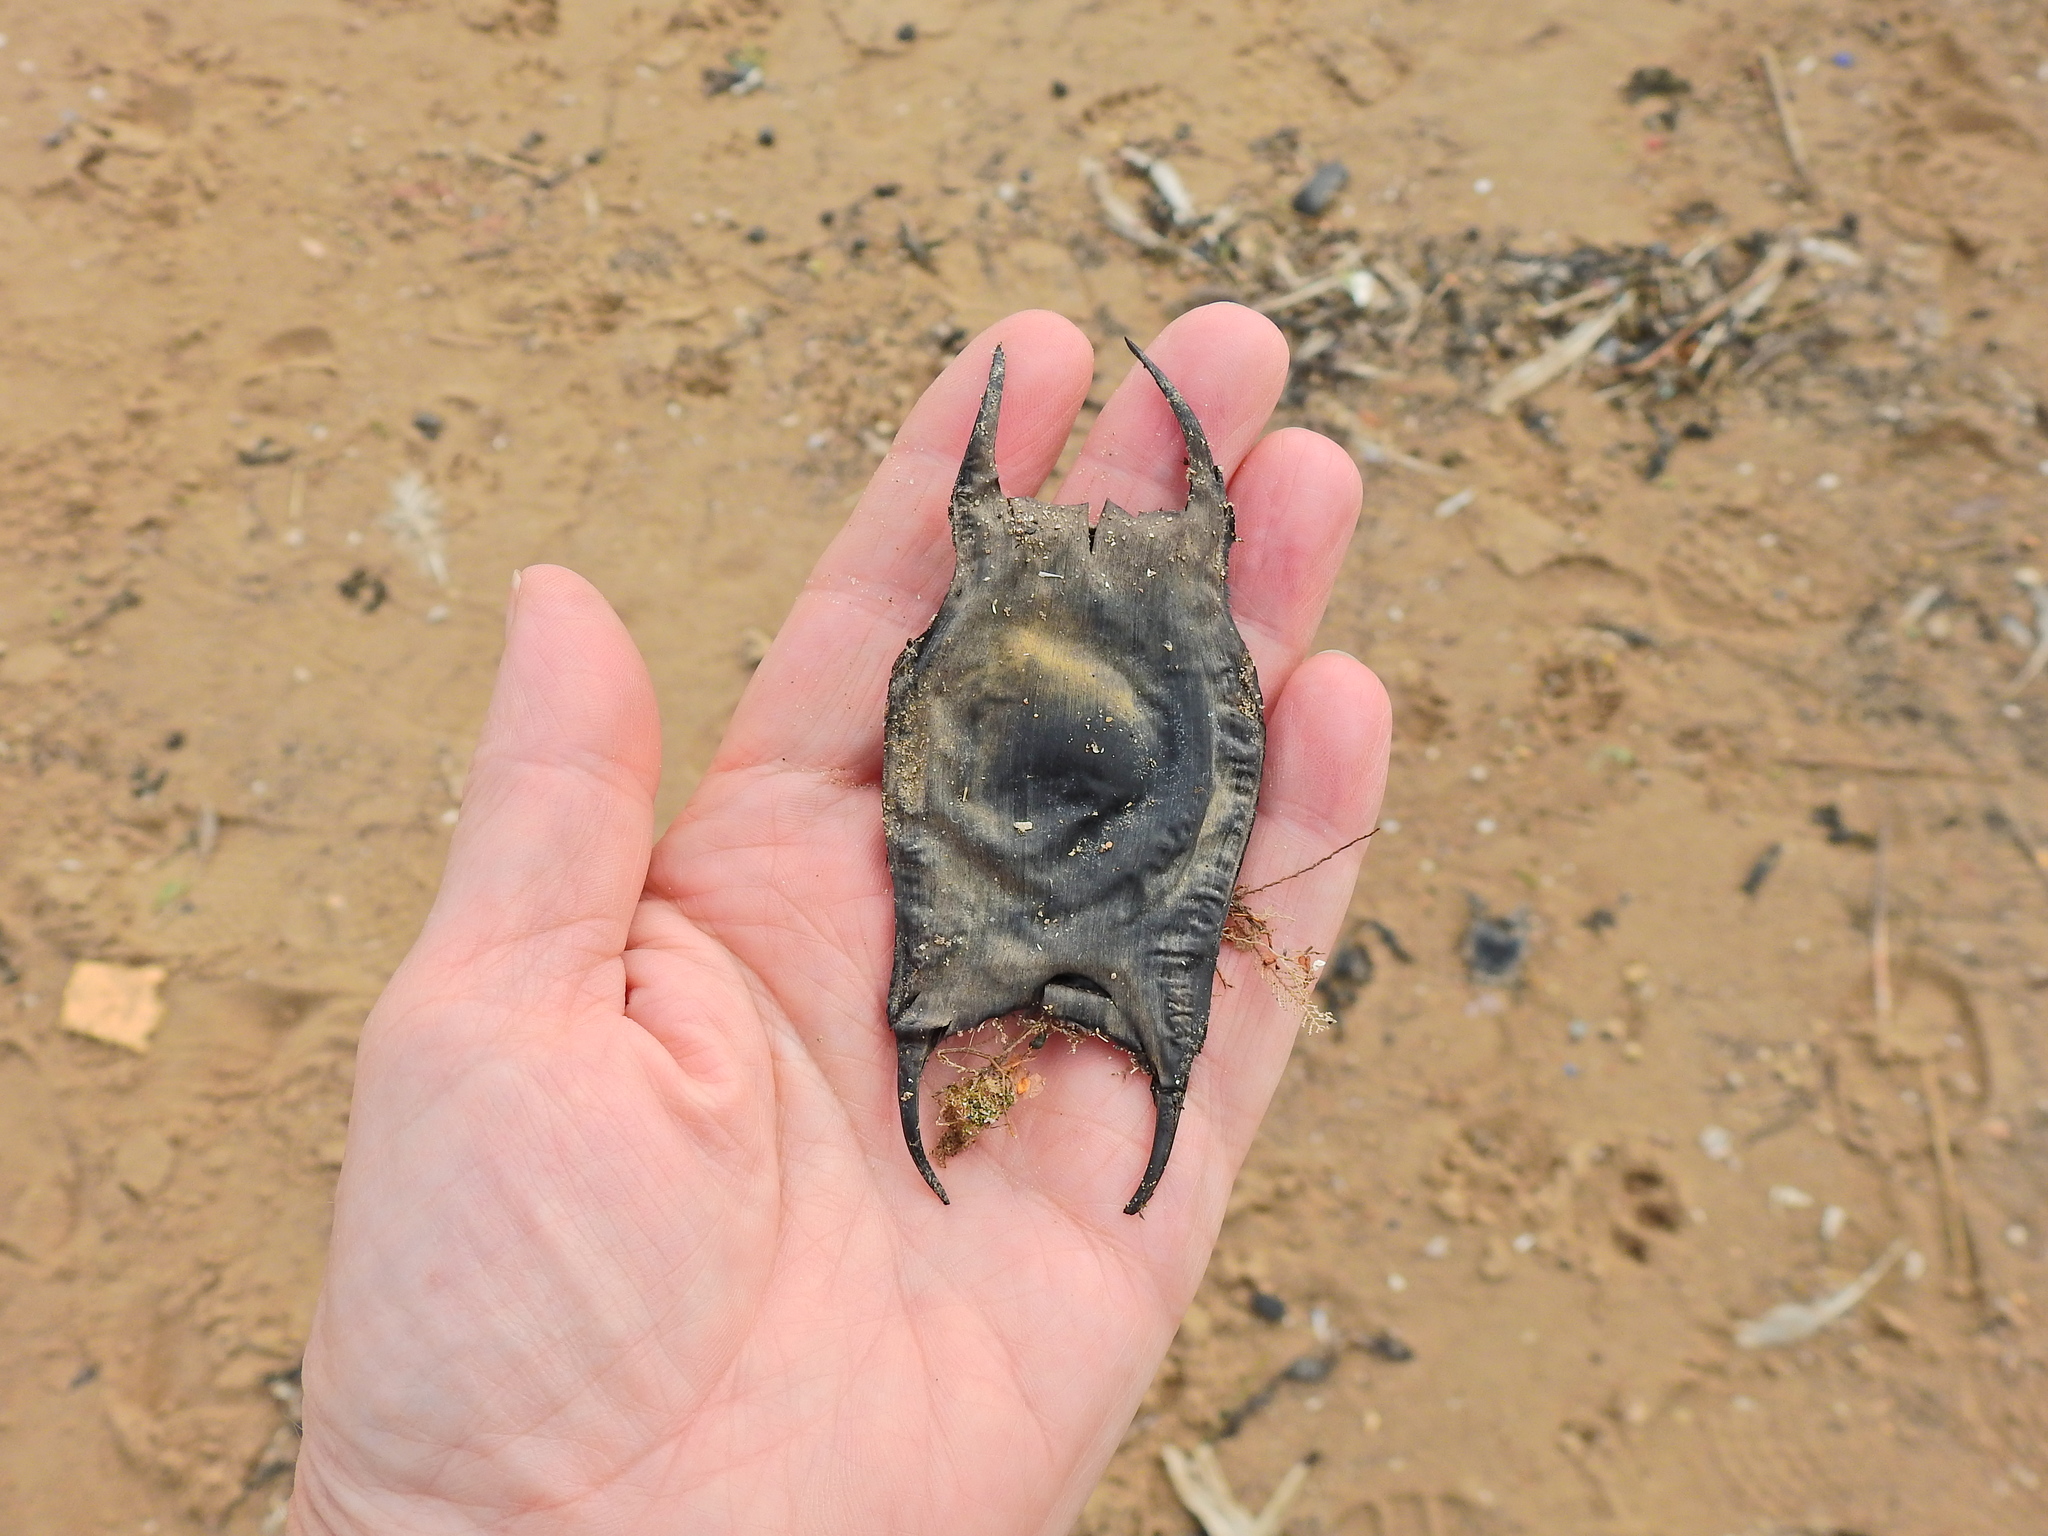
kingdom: Animalia
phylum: Chordata
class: Elasmobranchii
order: Rajiformes
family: Rajidae
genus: Raja
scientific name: Raja clavata
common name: Thornback ray
